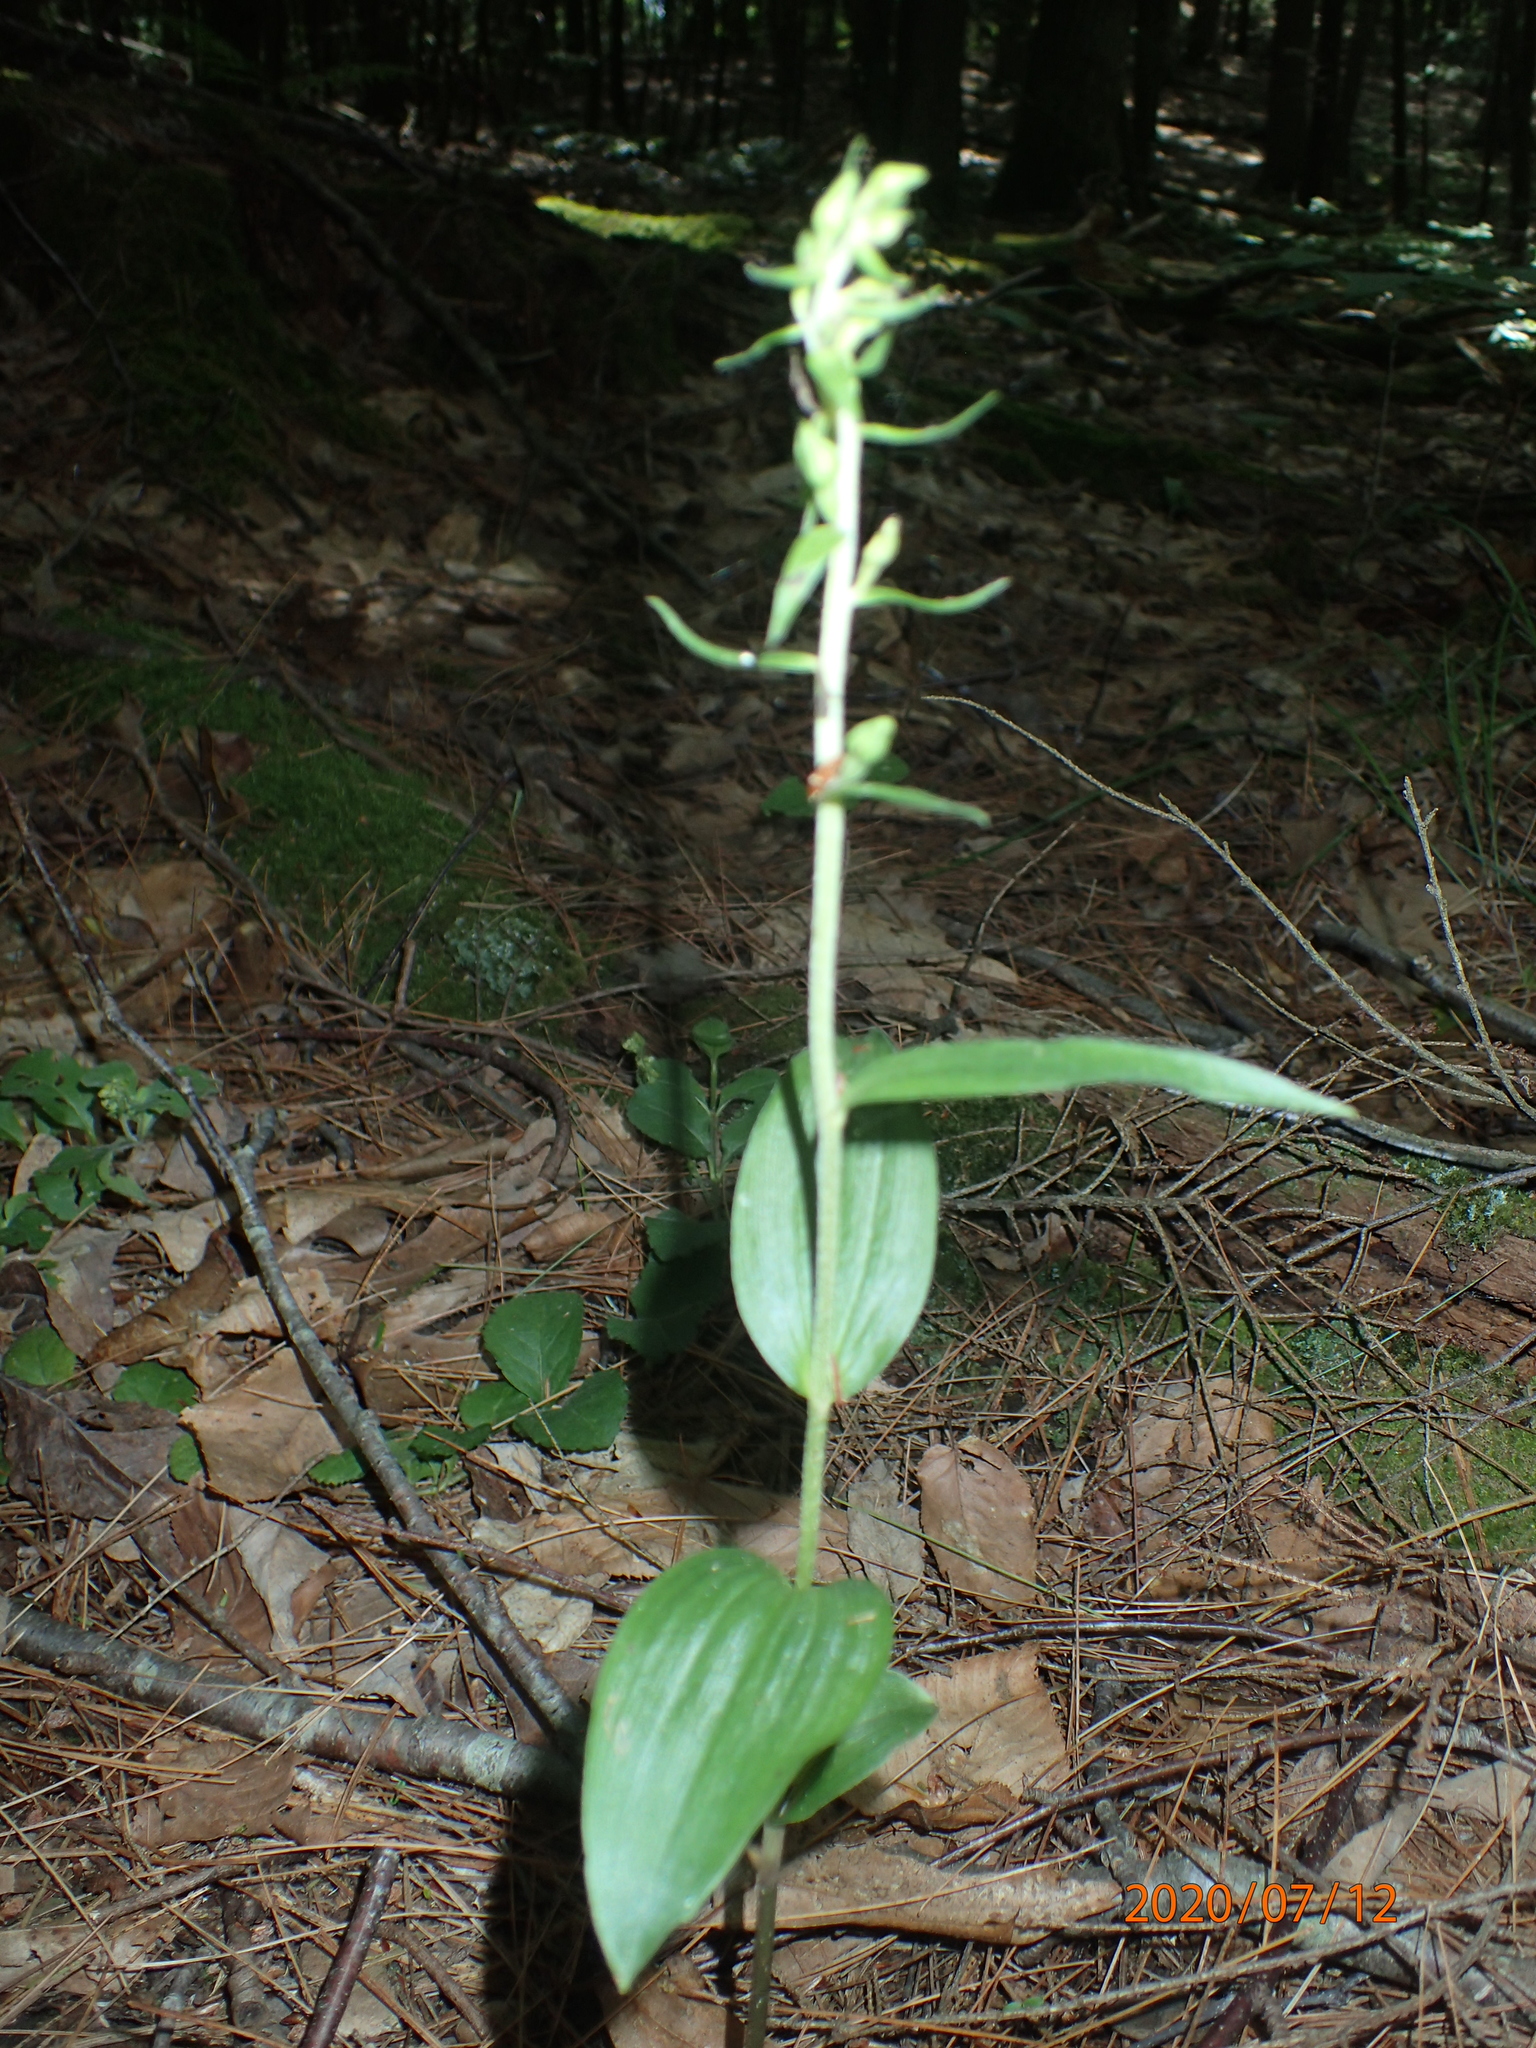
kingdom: Plantae
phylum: Tracheophyta
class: Liliopsida
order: Asparagales
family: Orchidaceae
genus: Epipactis
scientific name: Epipactis helleborine
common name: Broad-leaved helleborine
